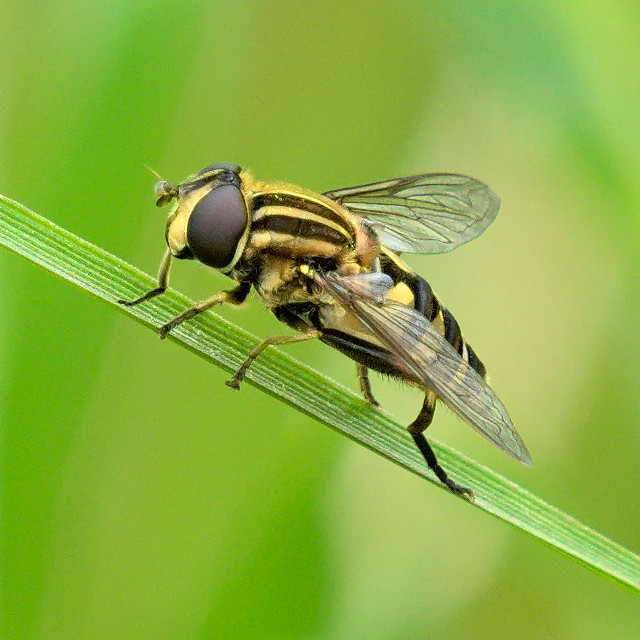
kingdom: Animalia
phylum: Arthropoda
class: Insecta
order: Diptera
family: Syrphidae
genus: Helophilus
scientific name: Helophilus fasciatus
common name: Narrow-headed marsh fly
